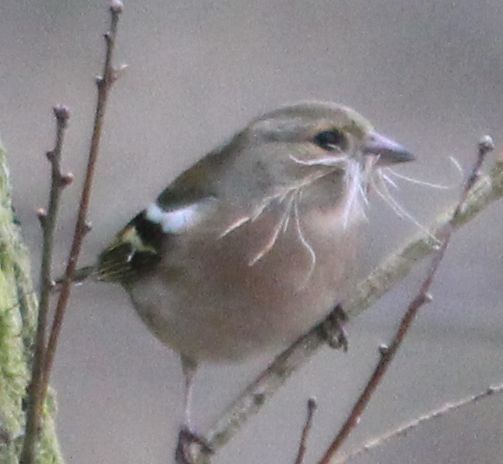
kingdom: Animalia
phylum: Chordata
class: Aves
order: Passeriformes
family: Fringillidae
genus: Fringilla
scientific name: Fringilla coelebs
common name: Common chaffinch
